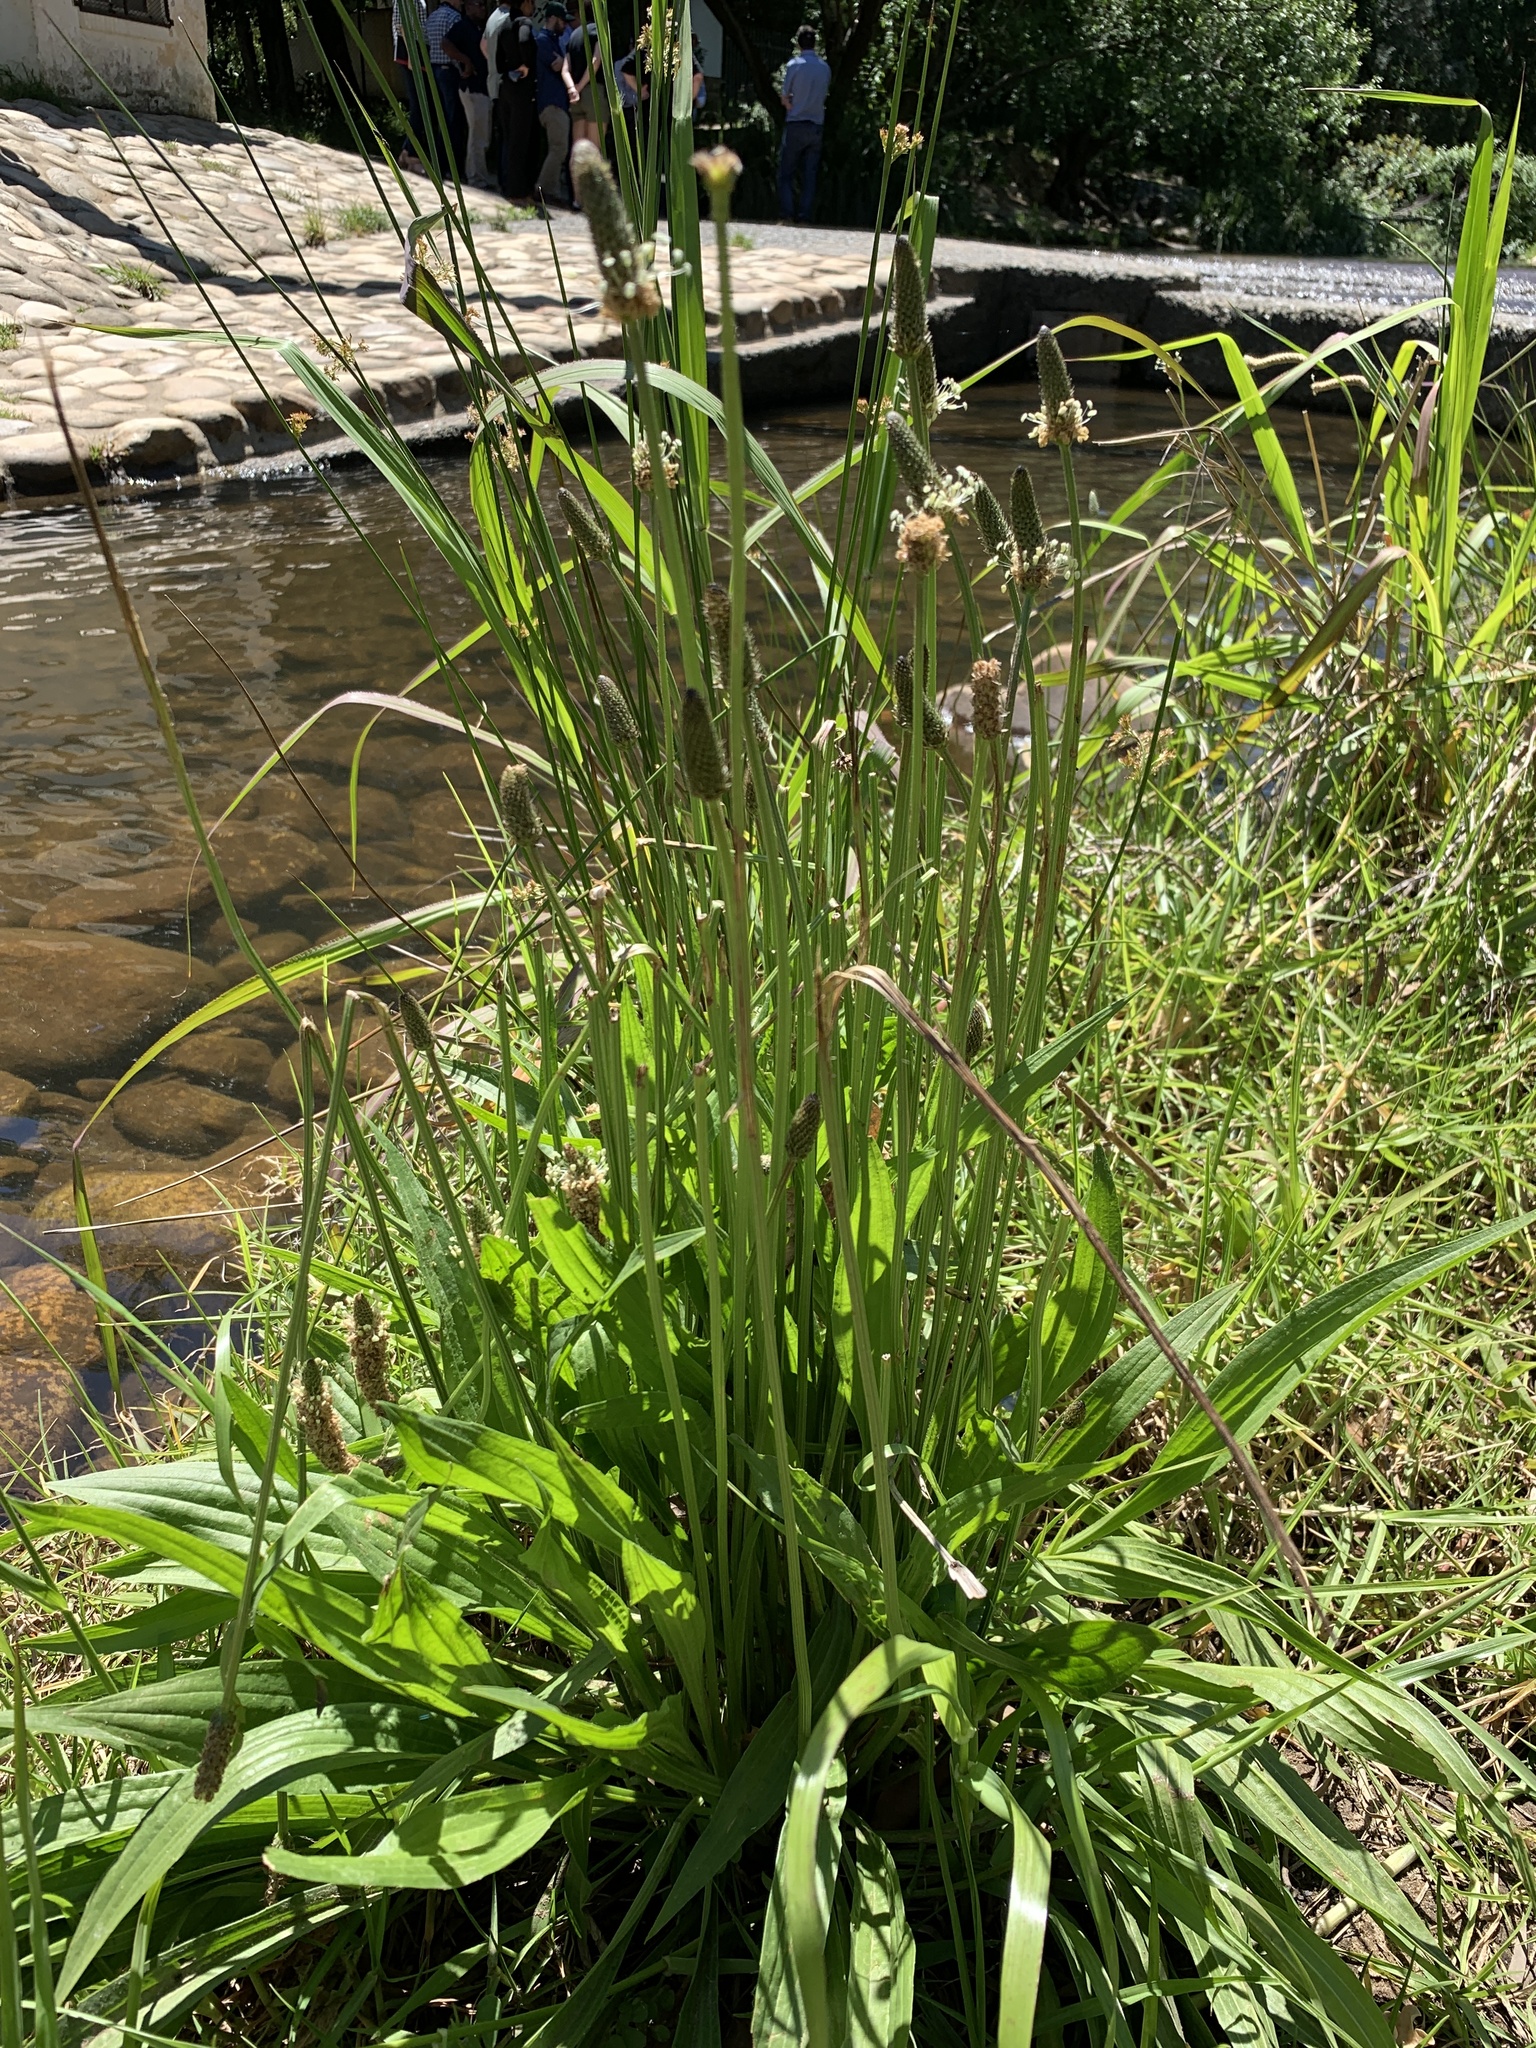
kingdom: Plantae
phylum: Tracheophyta
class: Magnoliopsida
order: Lamiales
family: Plantaginaceae
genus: Plantago
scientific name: Plantago lanceolata
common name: Ribwort plantain
